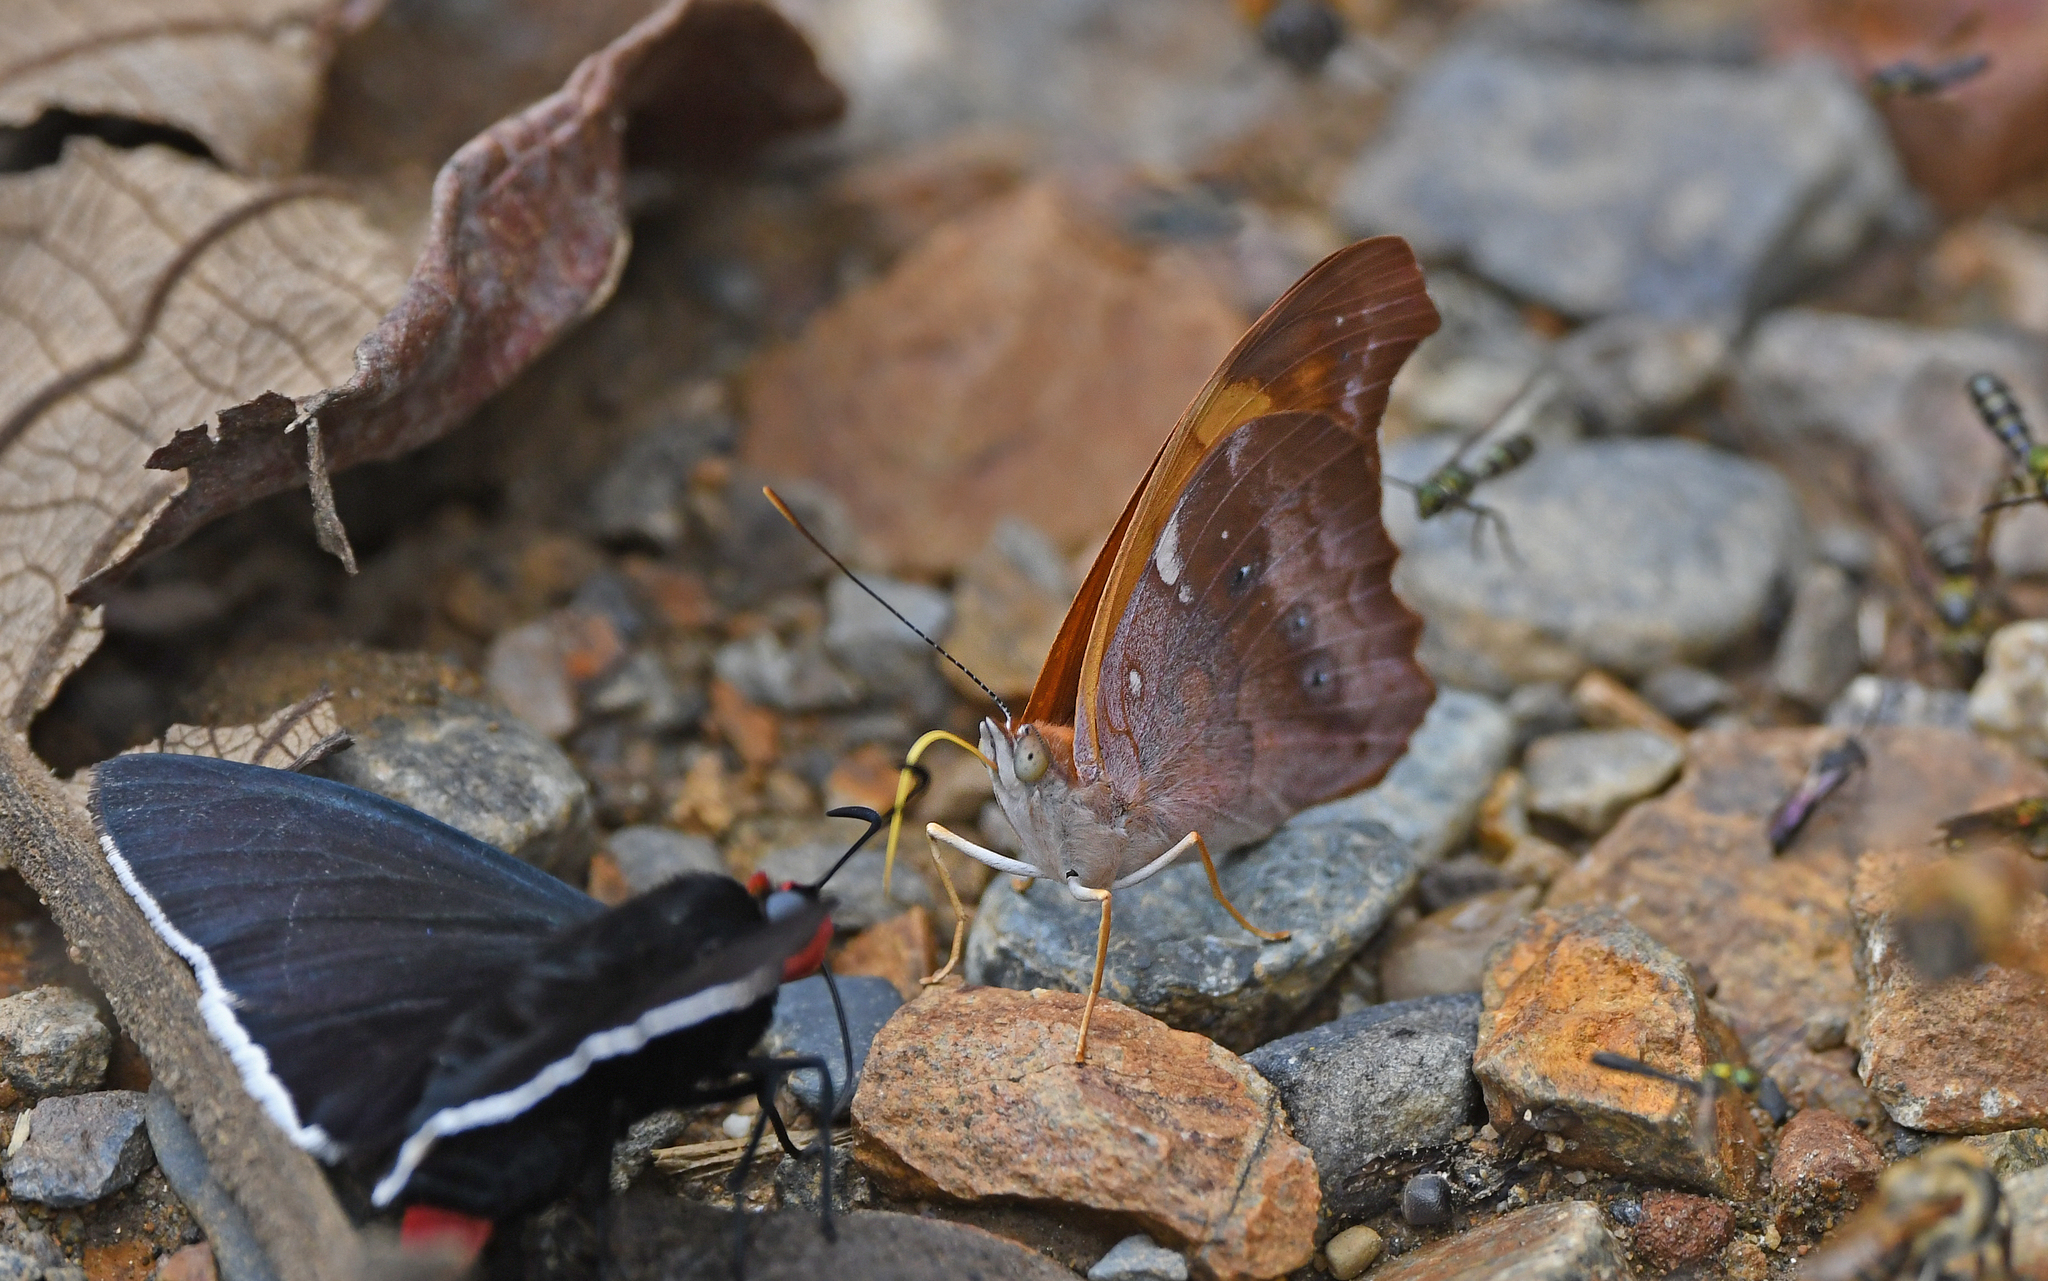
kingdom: Animalia
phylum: Arthropoda
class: Insecta
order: Lepidoptera
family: Nymphalidae
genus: Temenis
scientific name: Temenis laothoe
